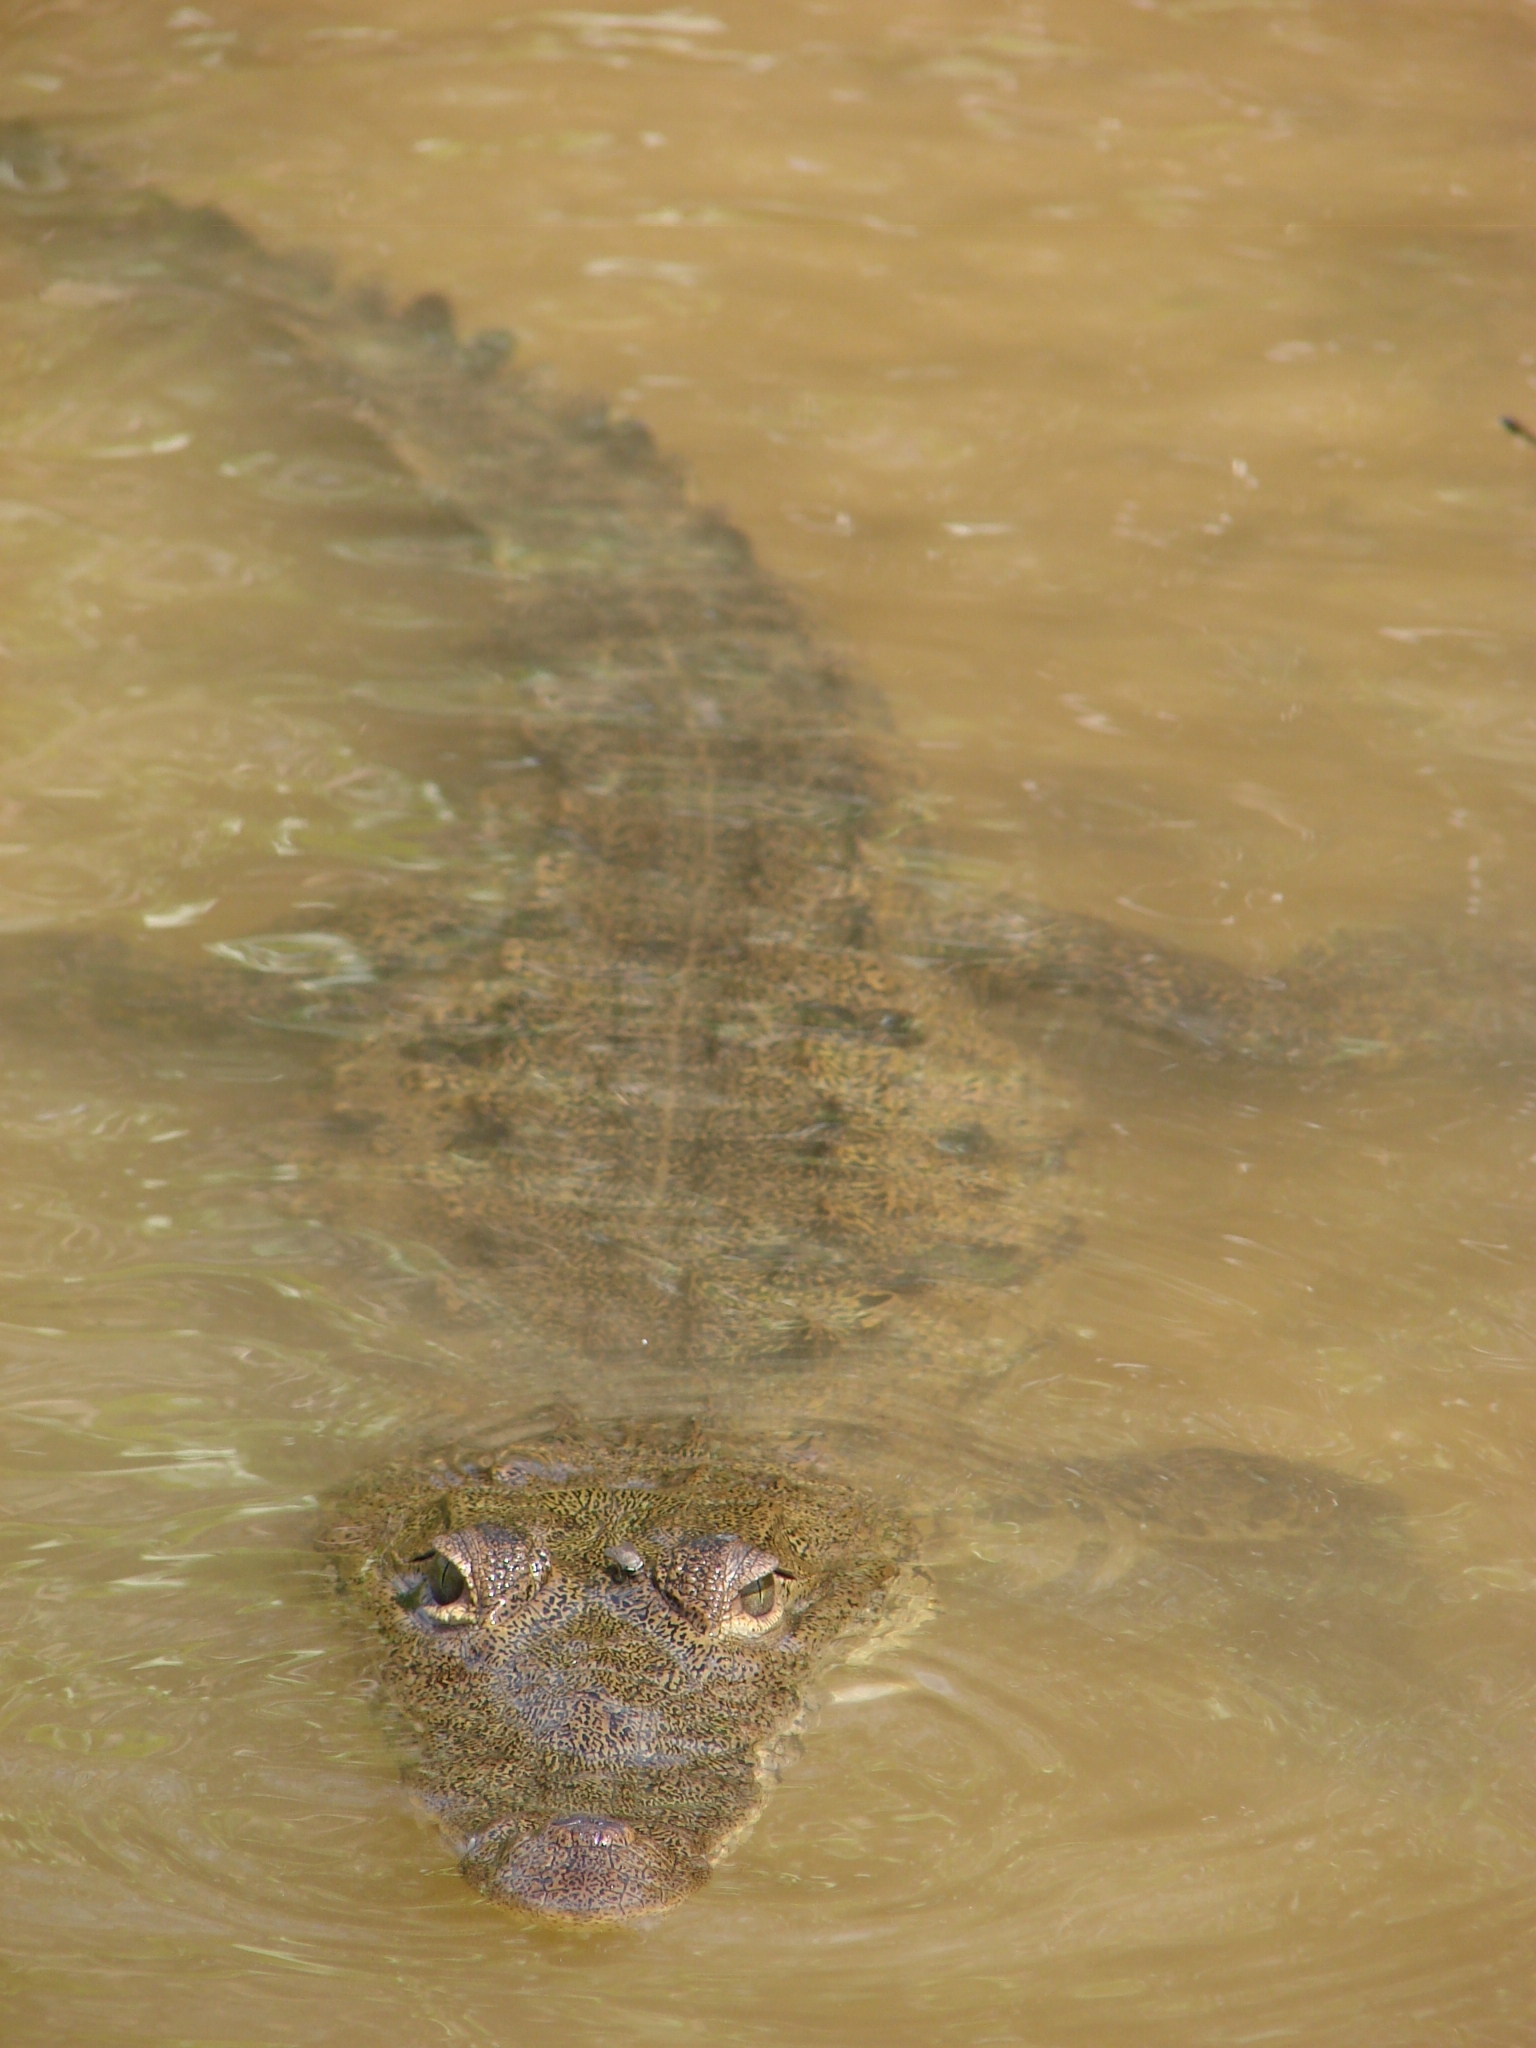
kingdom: Animalia
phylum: Chordata
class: Crocodylia
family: Crocodylidae
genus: Crocodylus
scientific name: Crocodylus moreletii
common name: Morelet's crocodile
